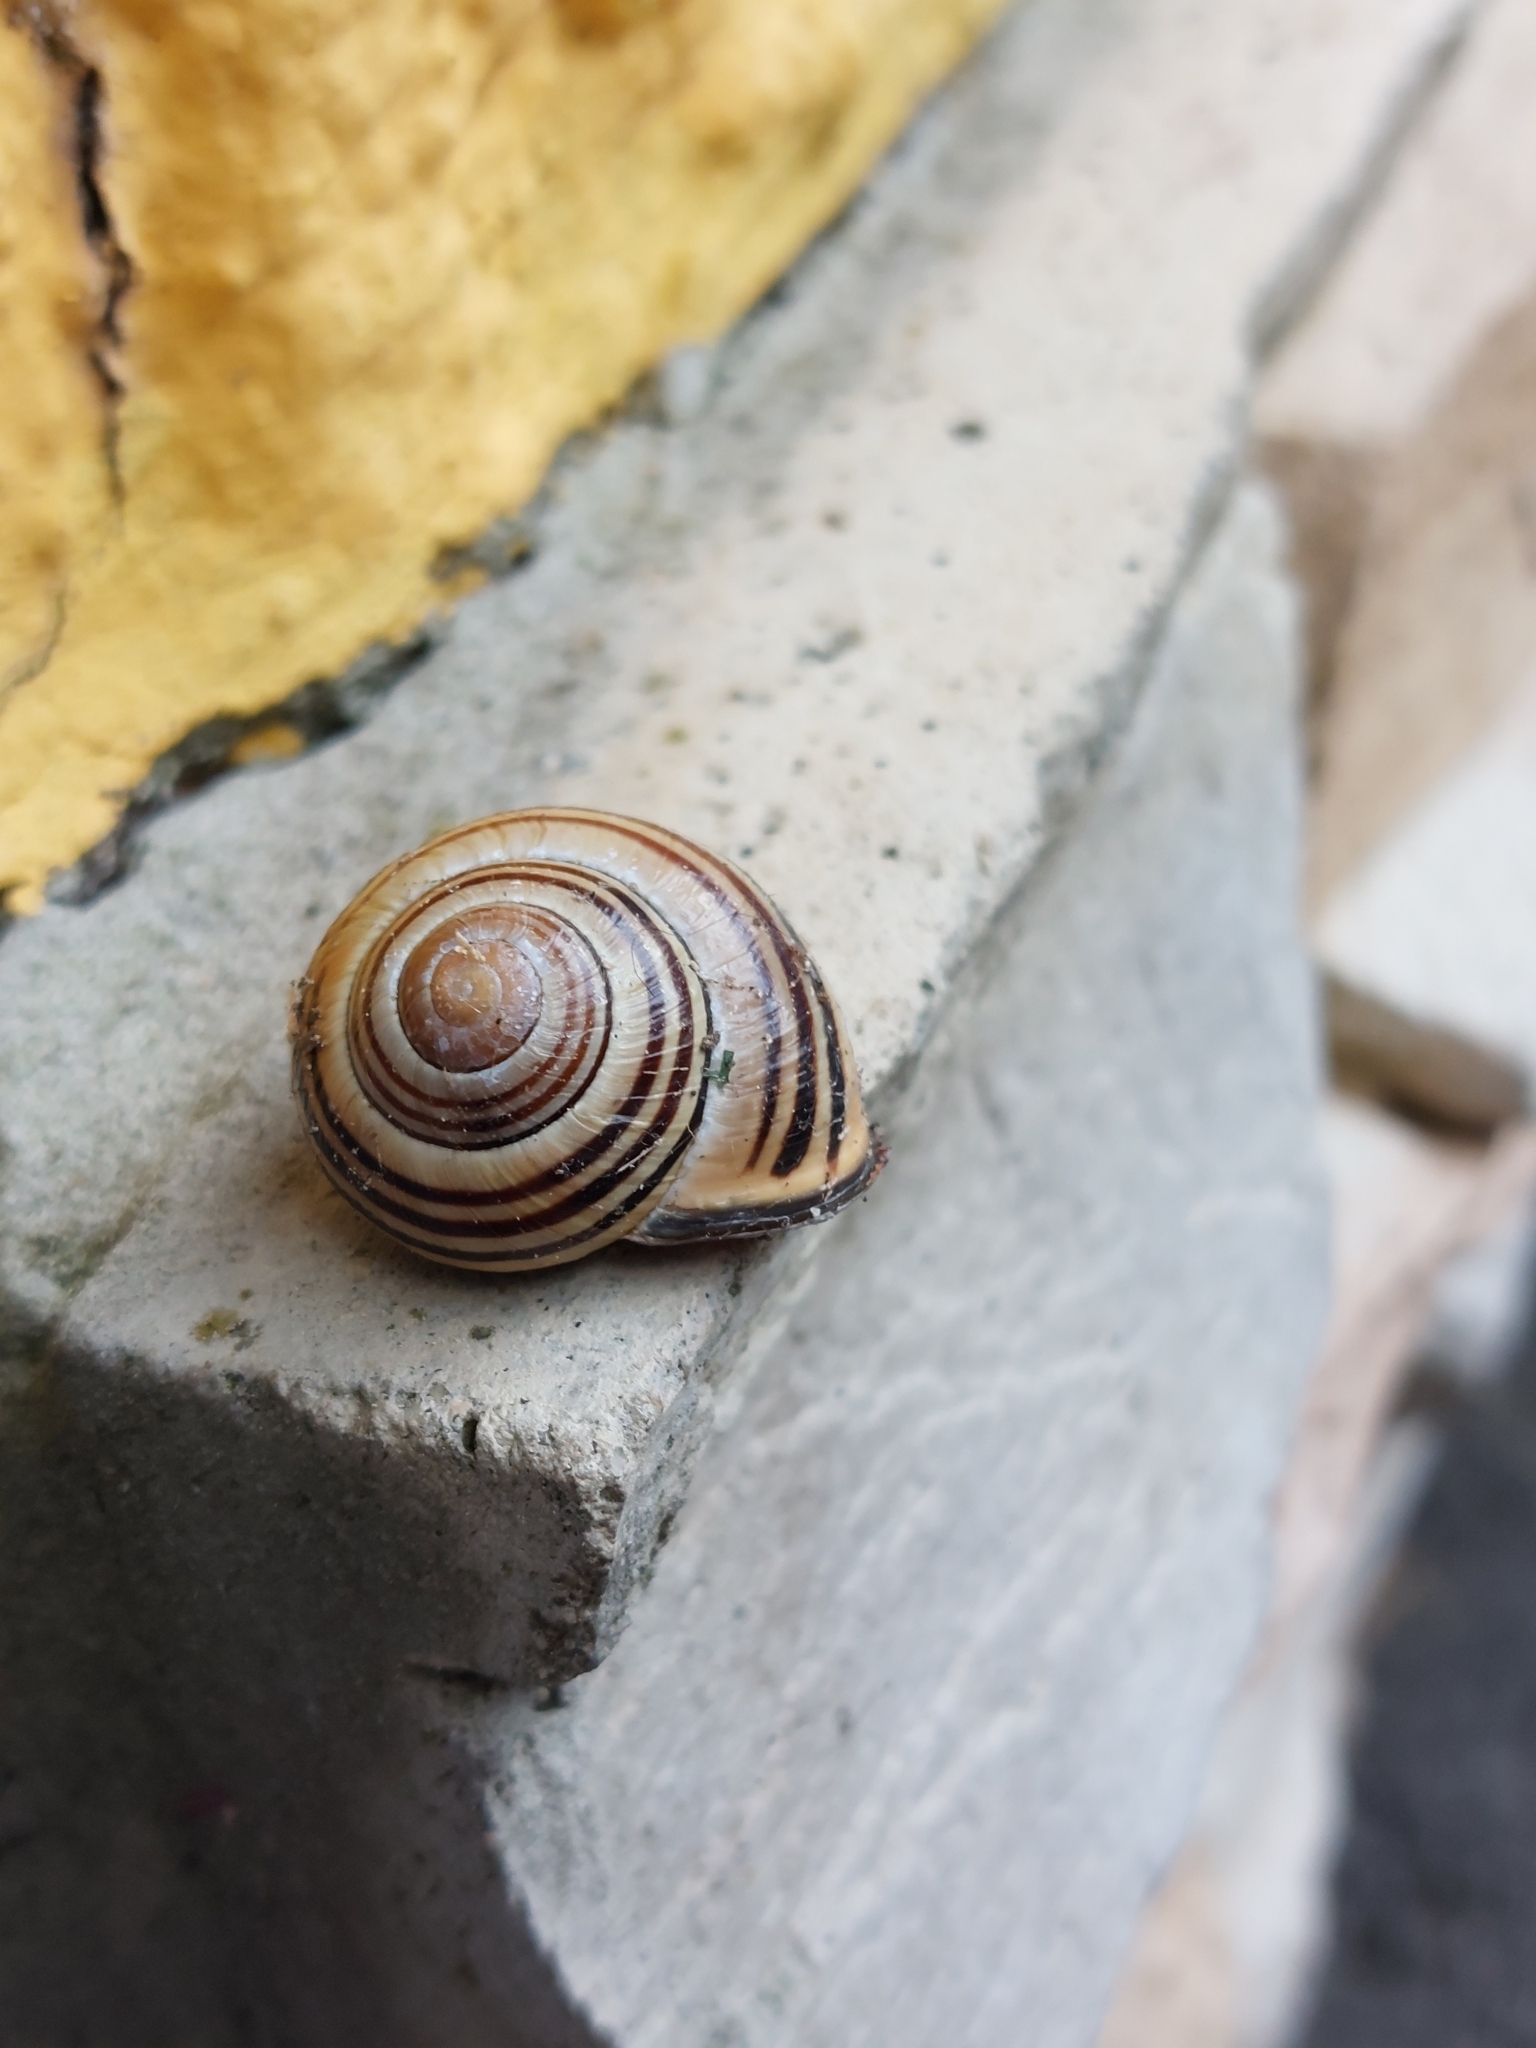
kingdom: Animalia
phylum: Mollusca
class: Gastropoda
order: Stylommatophora
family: Helicidae
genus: Cepaea
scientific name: Cepaea nemoralis
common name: Grovesnail
